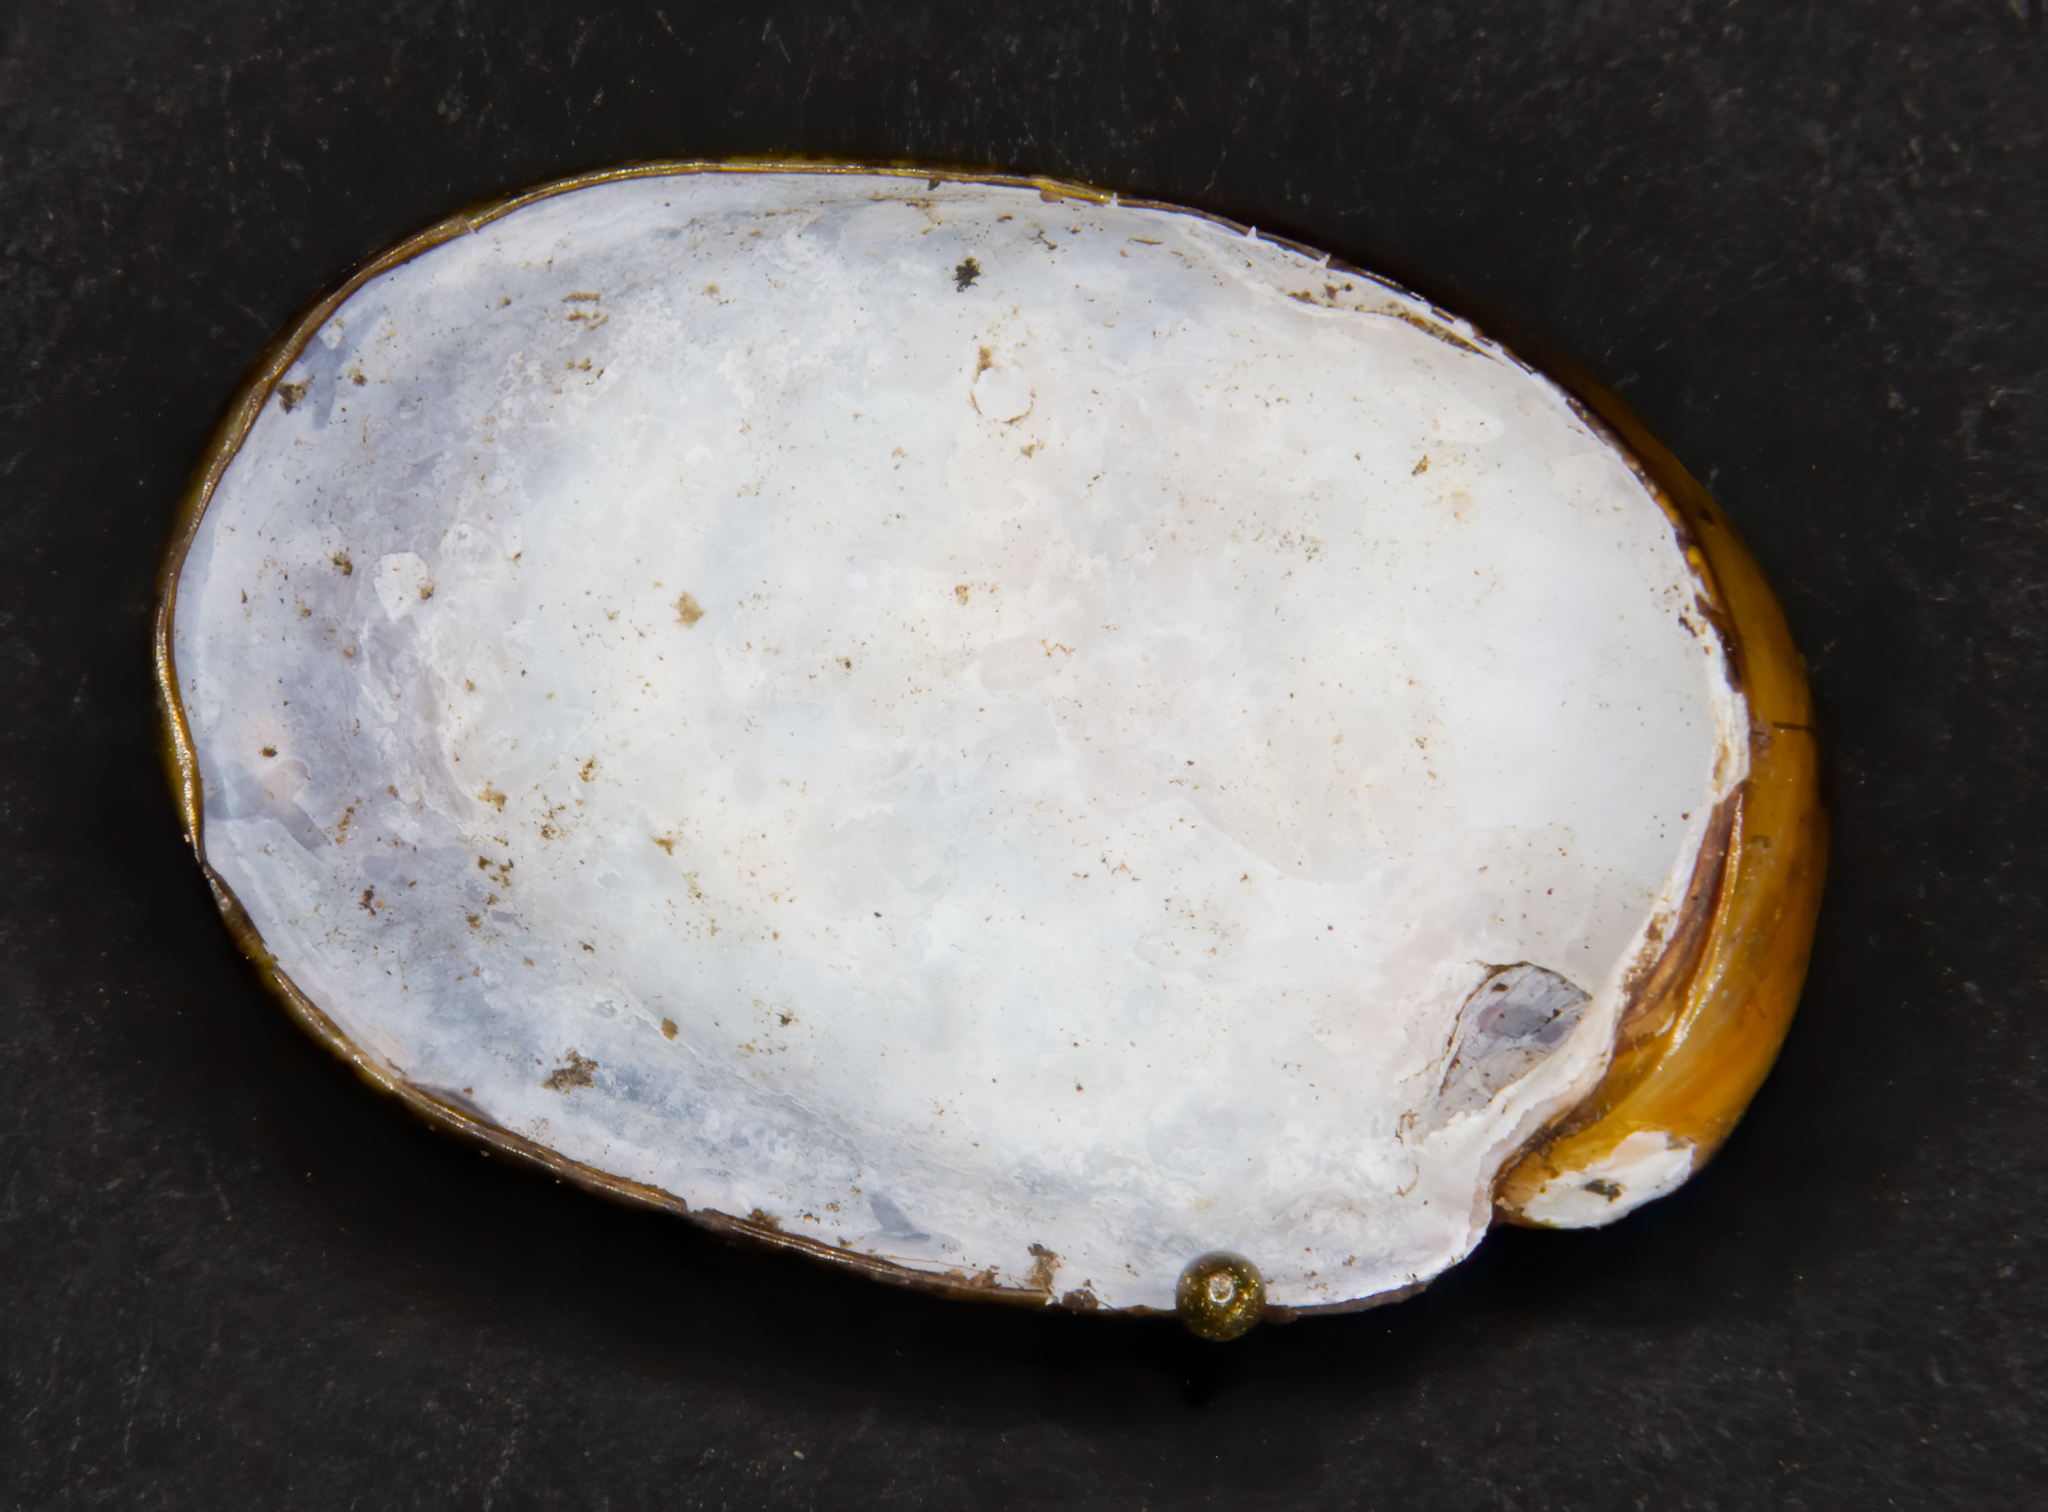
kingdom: Animalia
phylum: Mollusca
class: Gastropoda
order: Stylommatophora
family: Rhytididae
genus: Schizoglossa
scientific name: Schizoglossa worthyae
